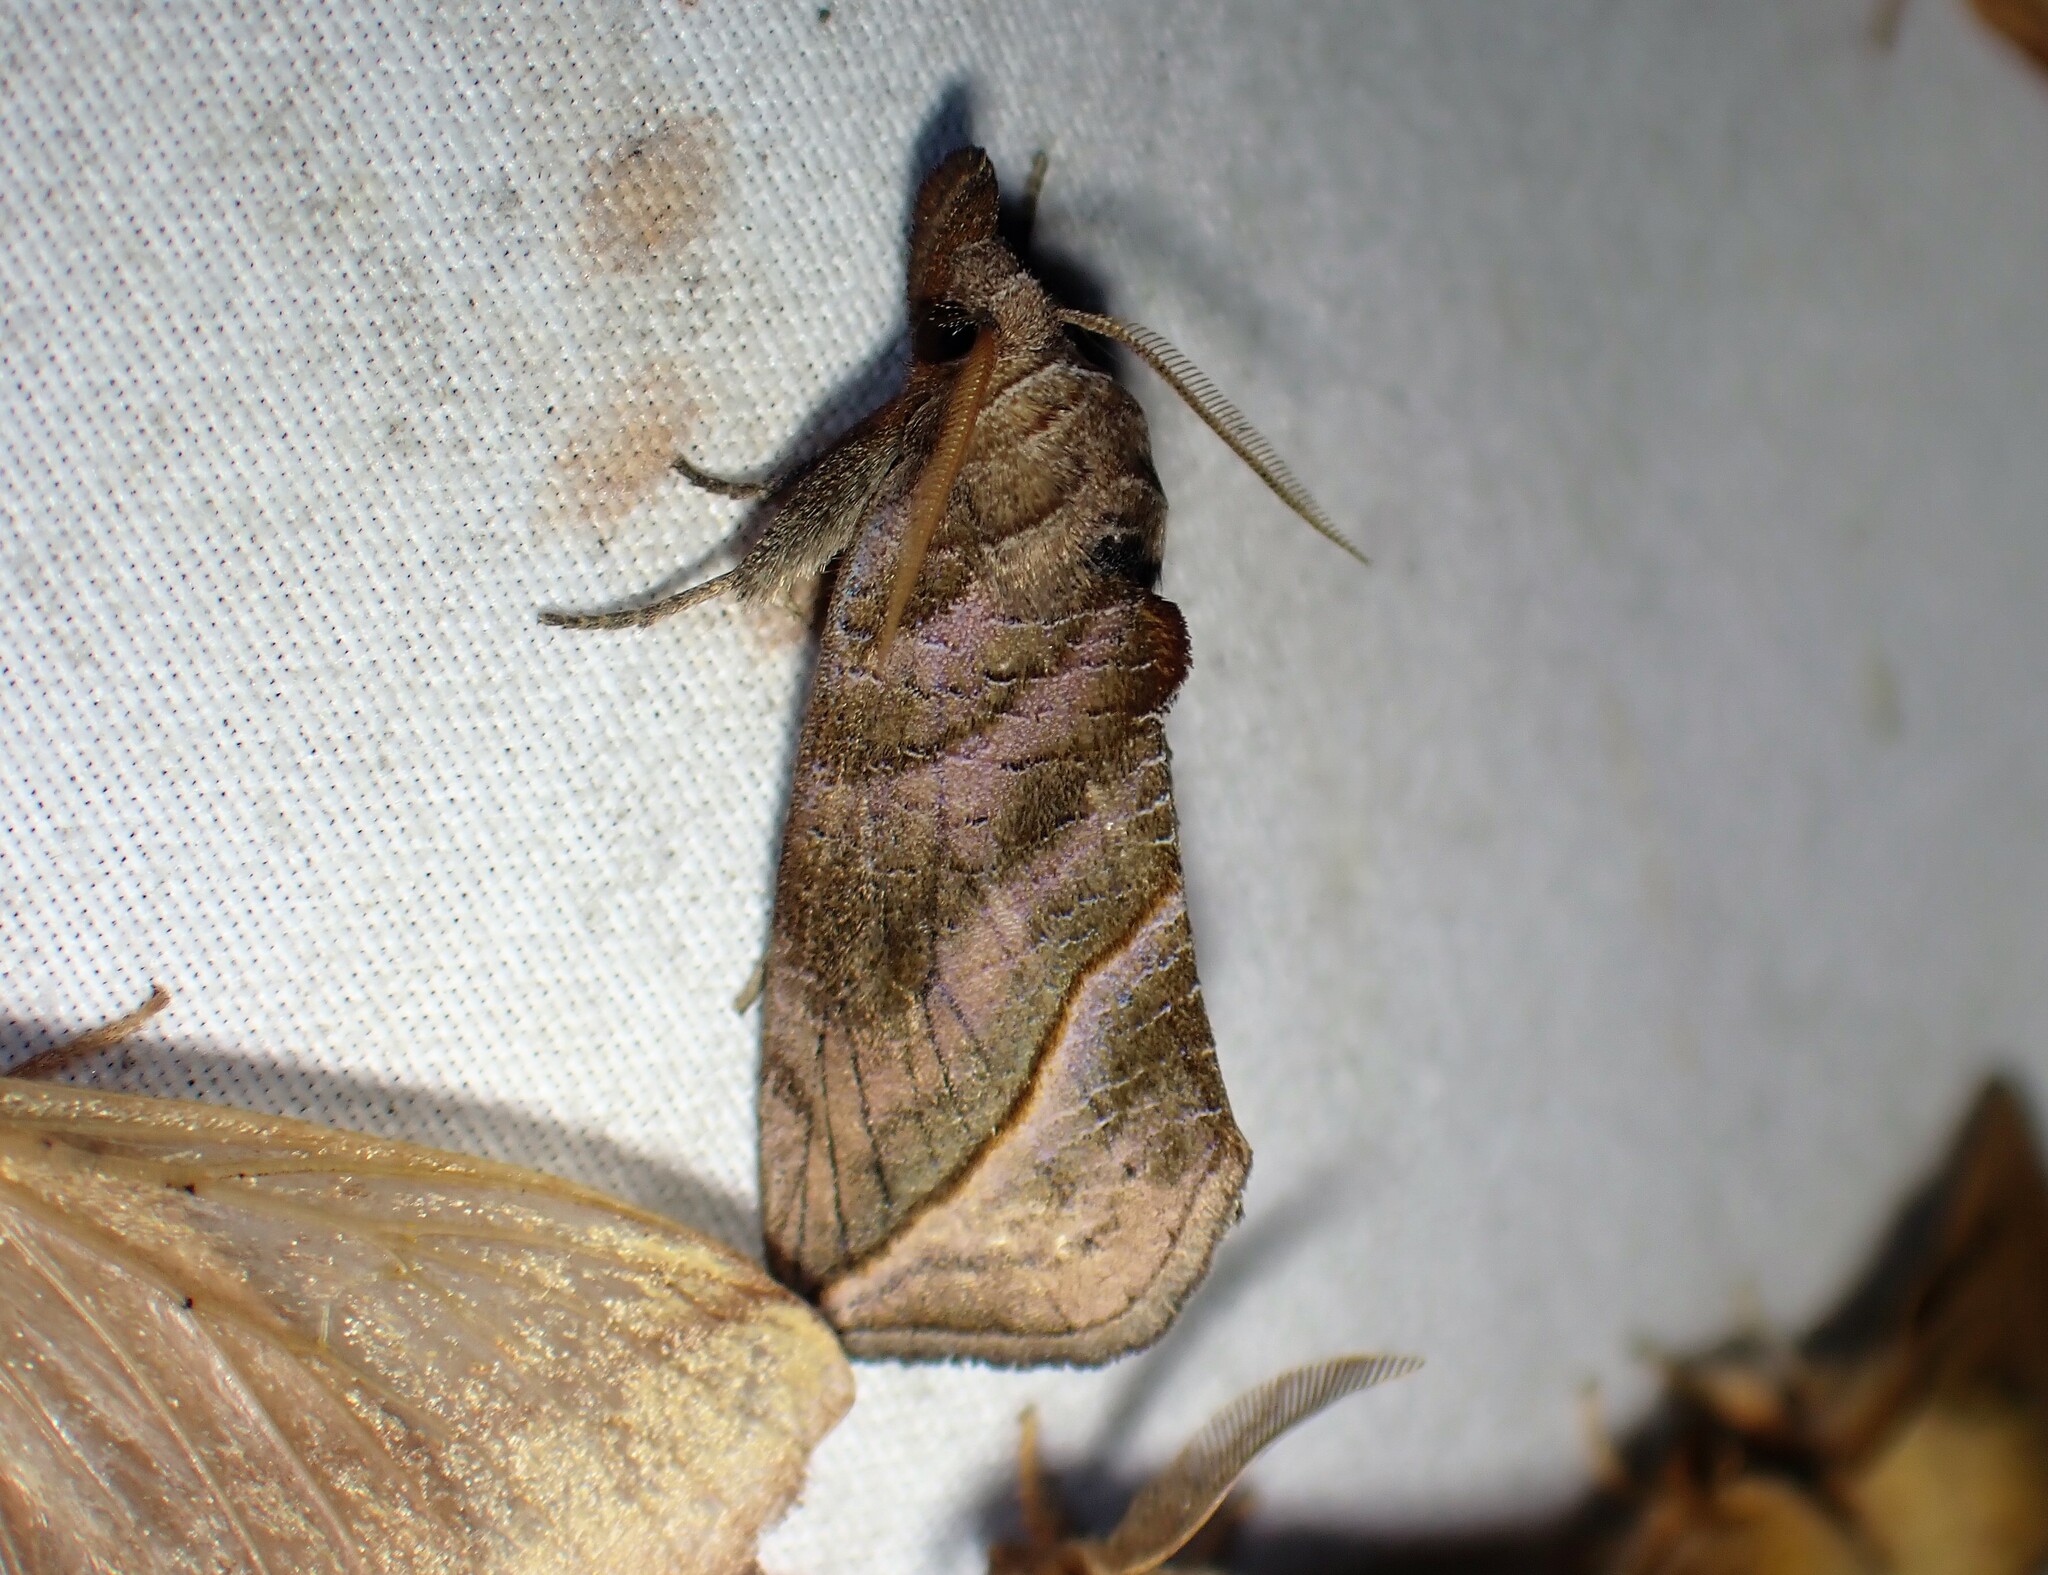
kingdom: Animalia
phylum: Arthropoda
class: Insecta
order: Lepidoptera
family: Erebidae
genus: Calyptra
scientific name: Calyptra canadensis
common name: Canadian owlet
